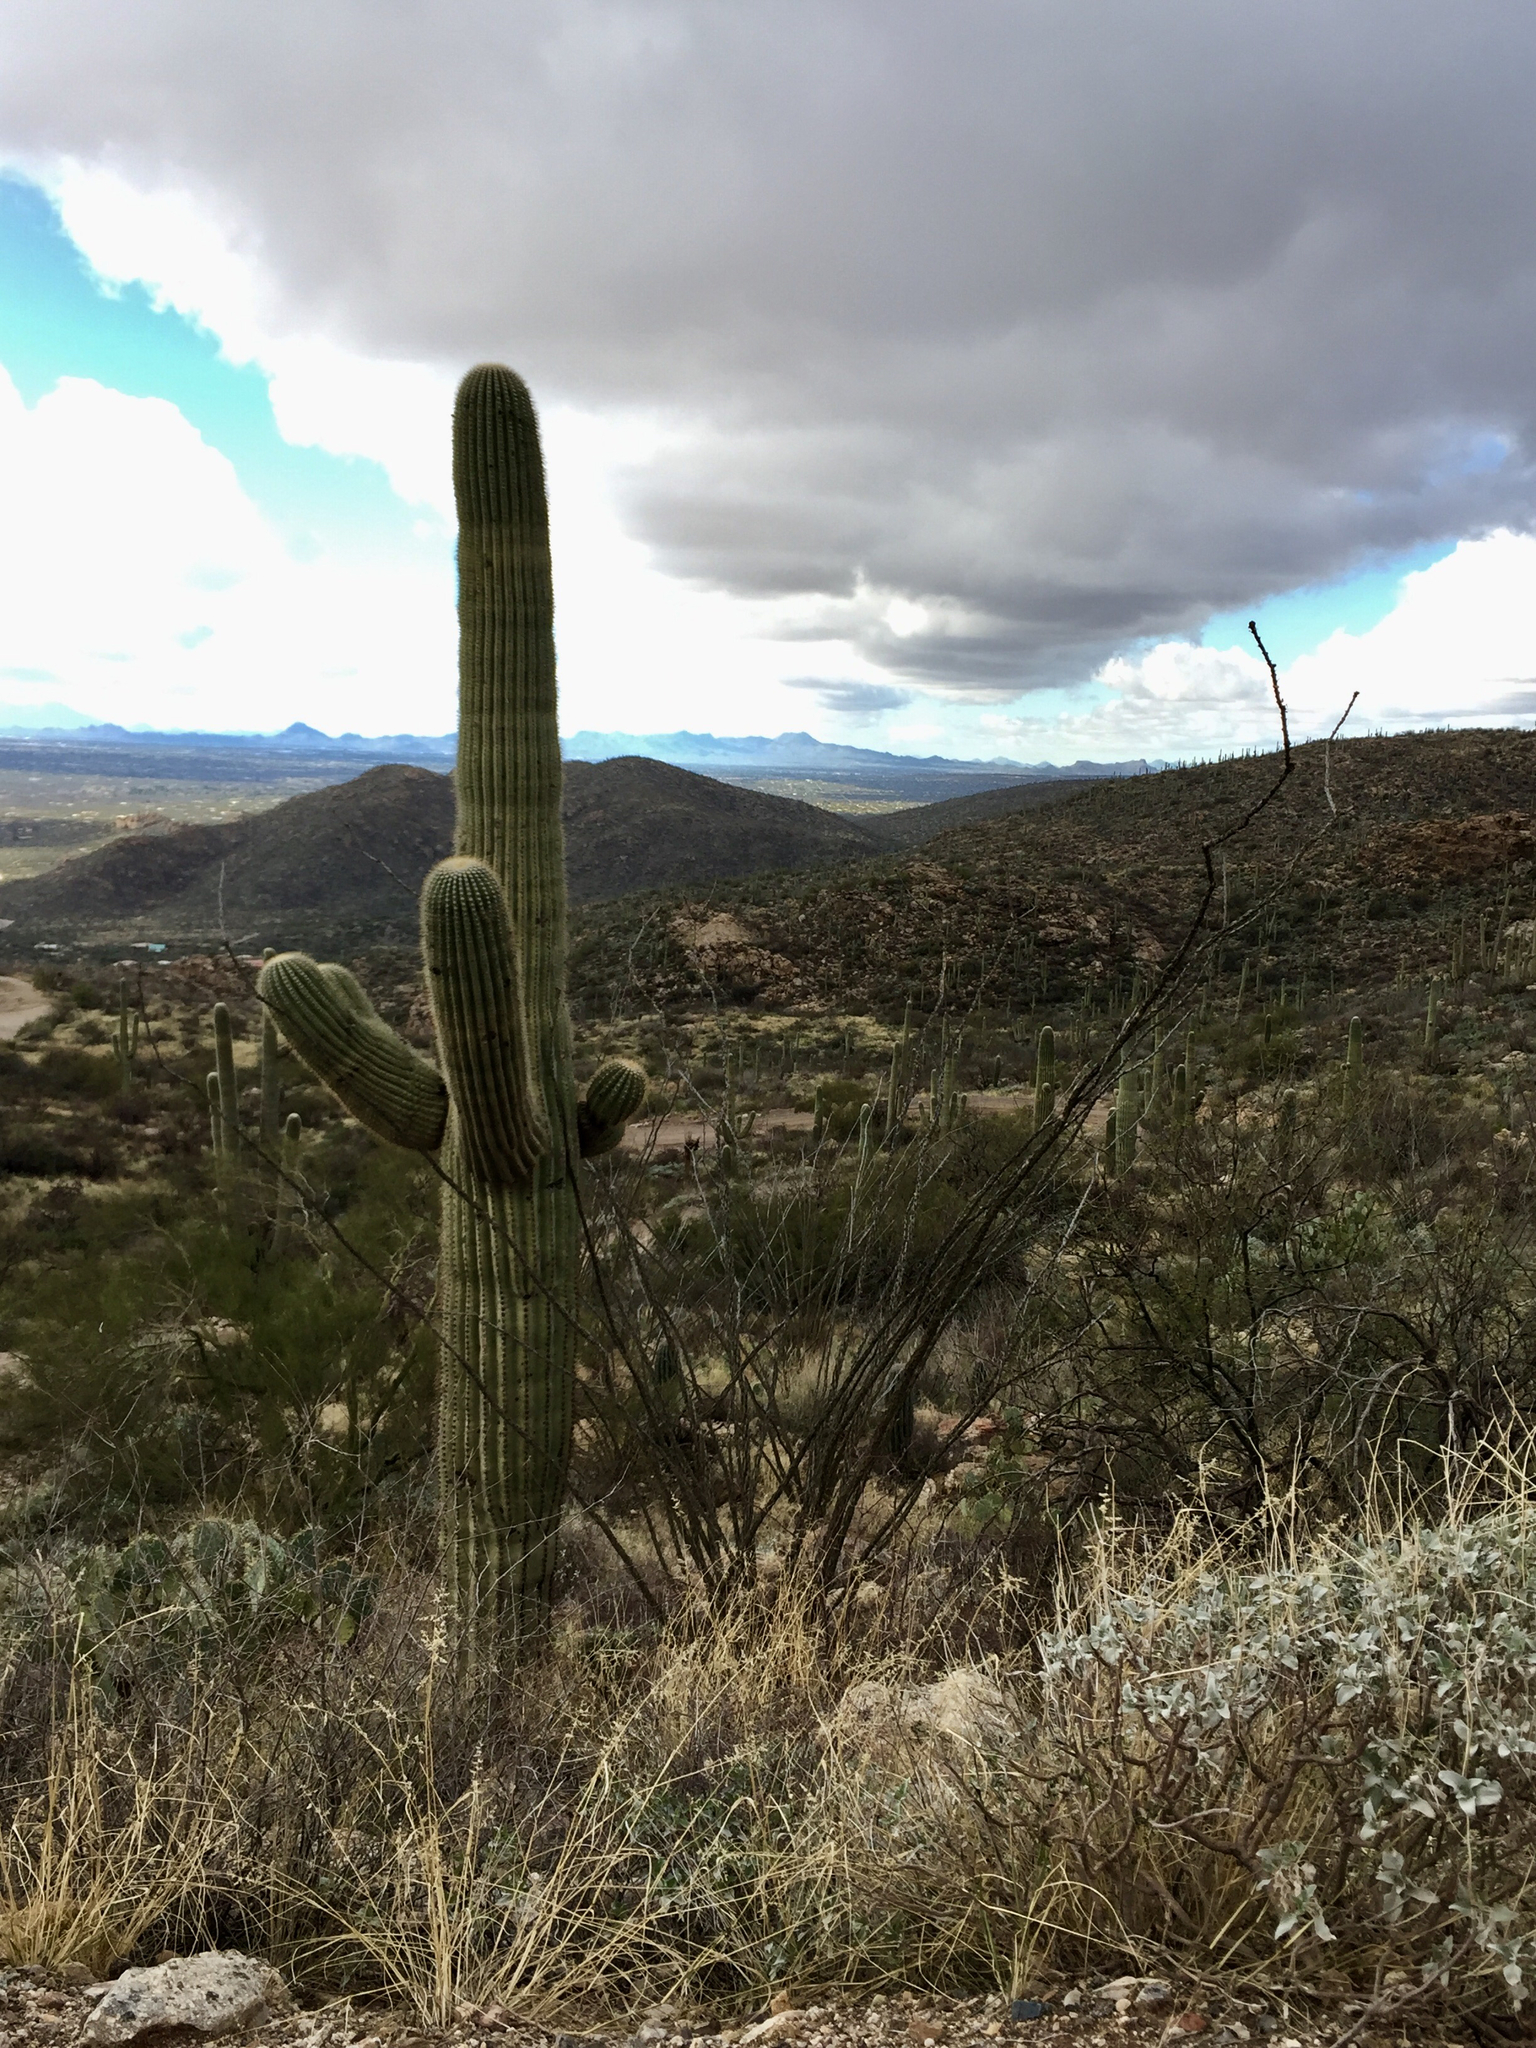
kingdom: Plantae
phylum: Tracheophyta
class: Magnoliopsida
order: Caryophyllales
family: Cactaceae
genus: Carnegiea
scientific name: Carnegiea gigantea
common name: Saguaro
